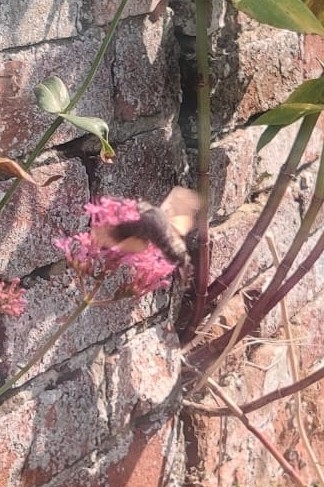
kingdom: Animalia
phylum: Arthropoda
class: Insecta
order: Lepidoptera
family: Sphingidae
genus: Macroglossum
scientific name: Macroglossum stellatarum
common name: Humming-bird hawk-moth
